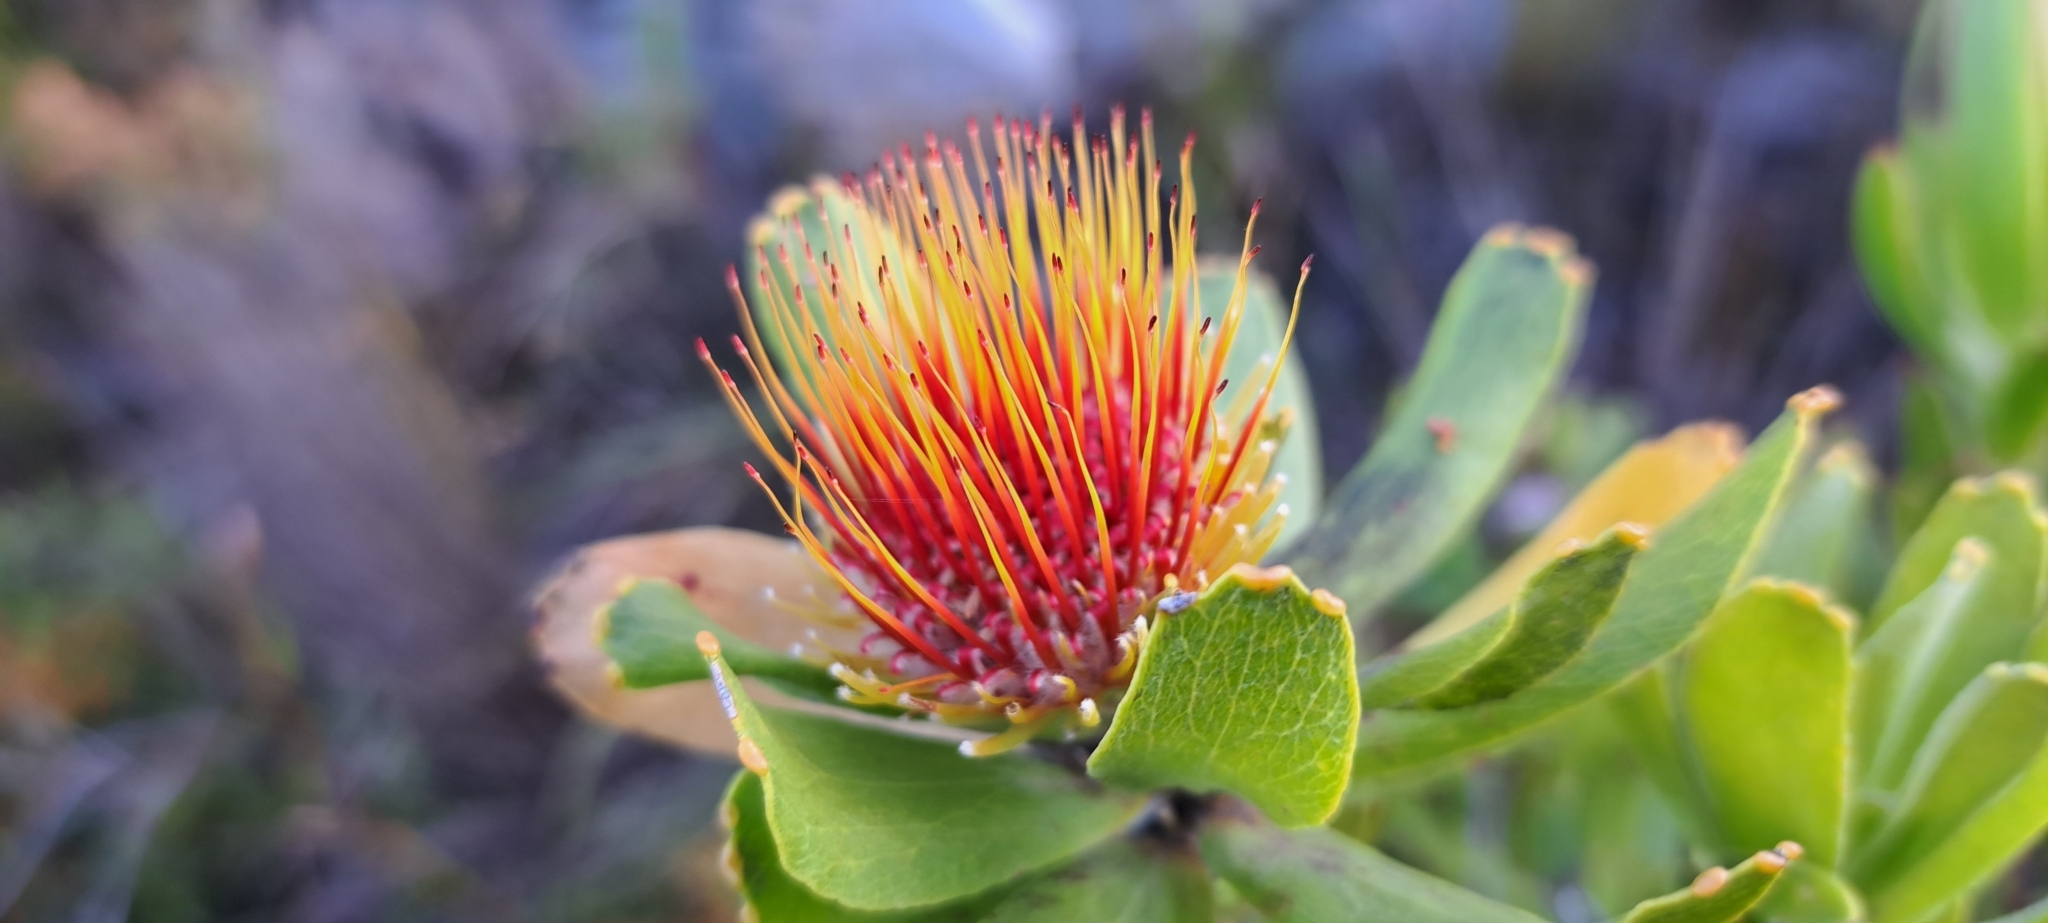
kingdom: Plantae
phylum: Tracheophyta
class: Magnoliopsida
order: Proteales
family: Proteaceae
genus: Leucospermum
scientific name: Leucospermum oleifolium
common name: Matches
